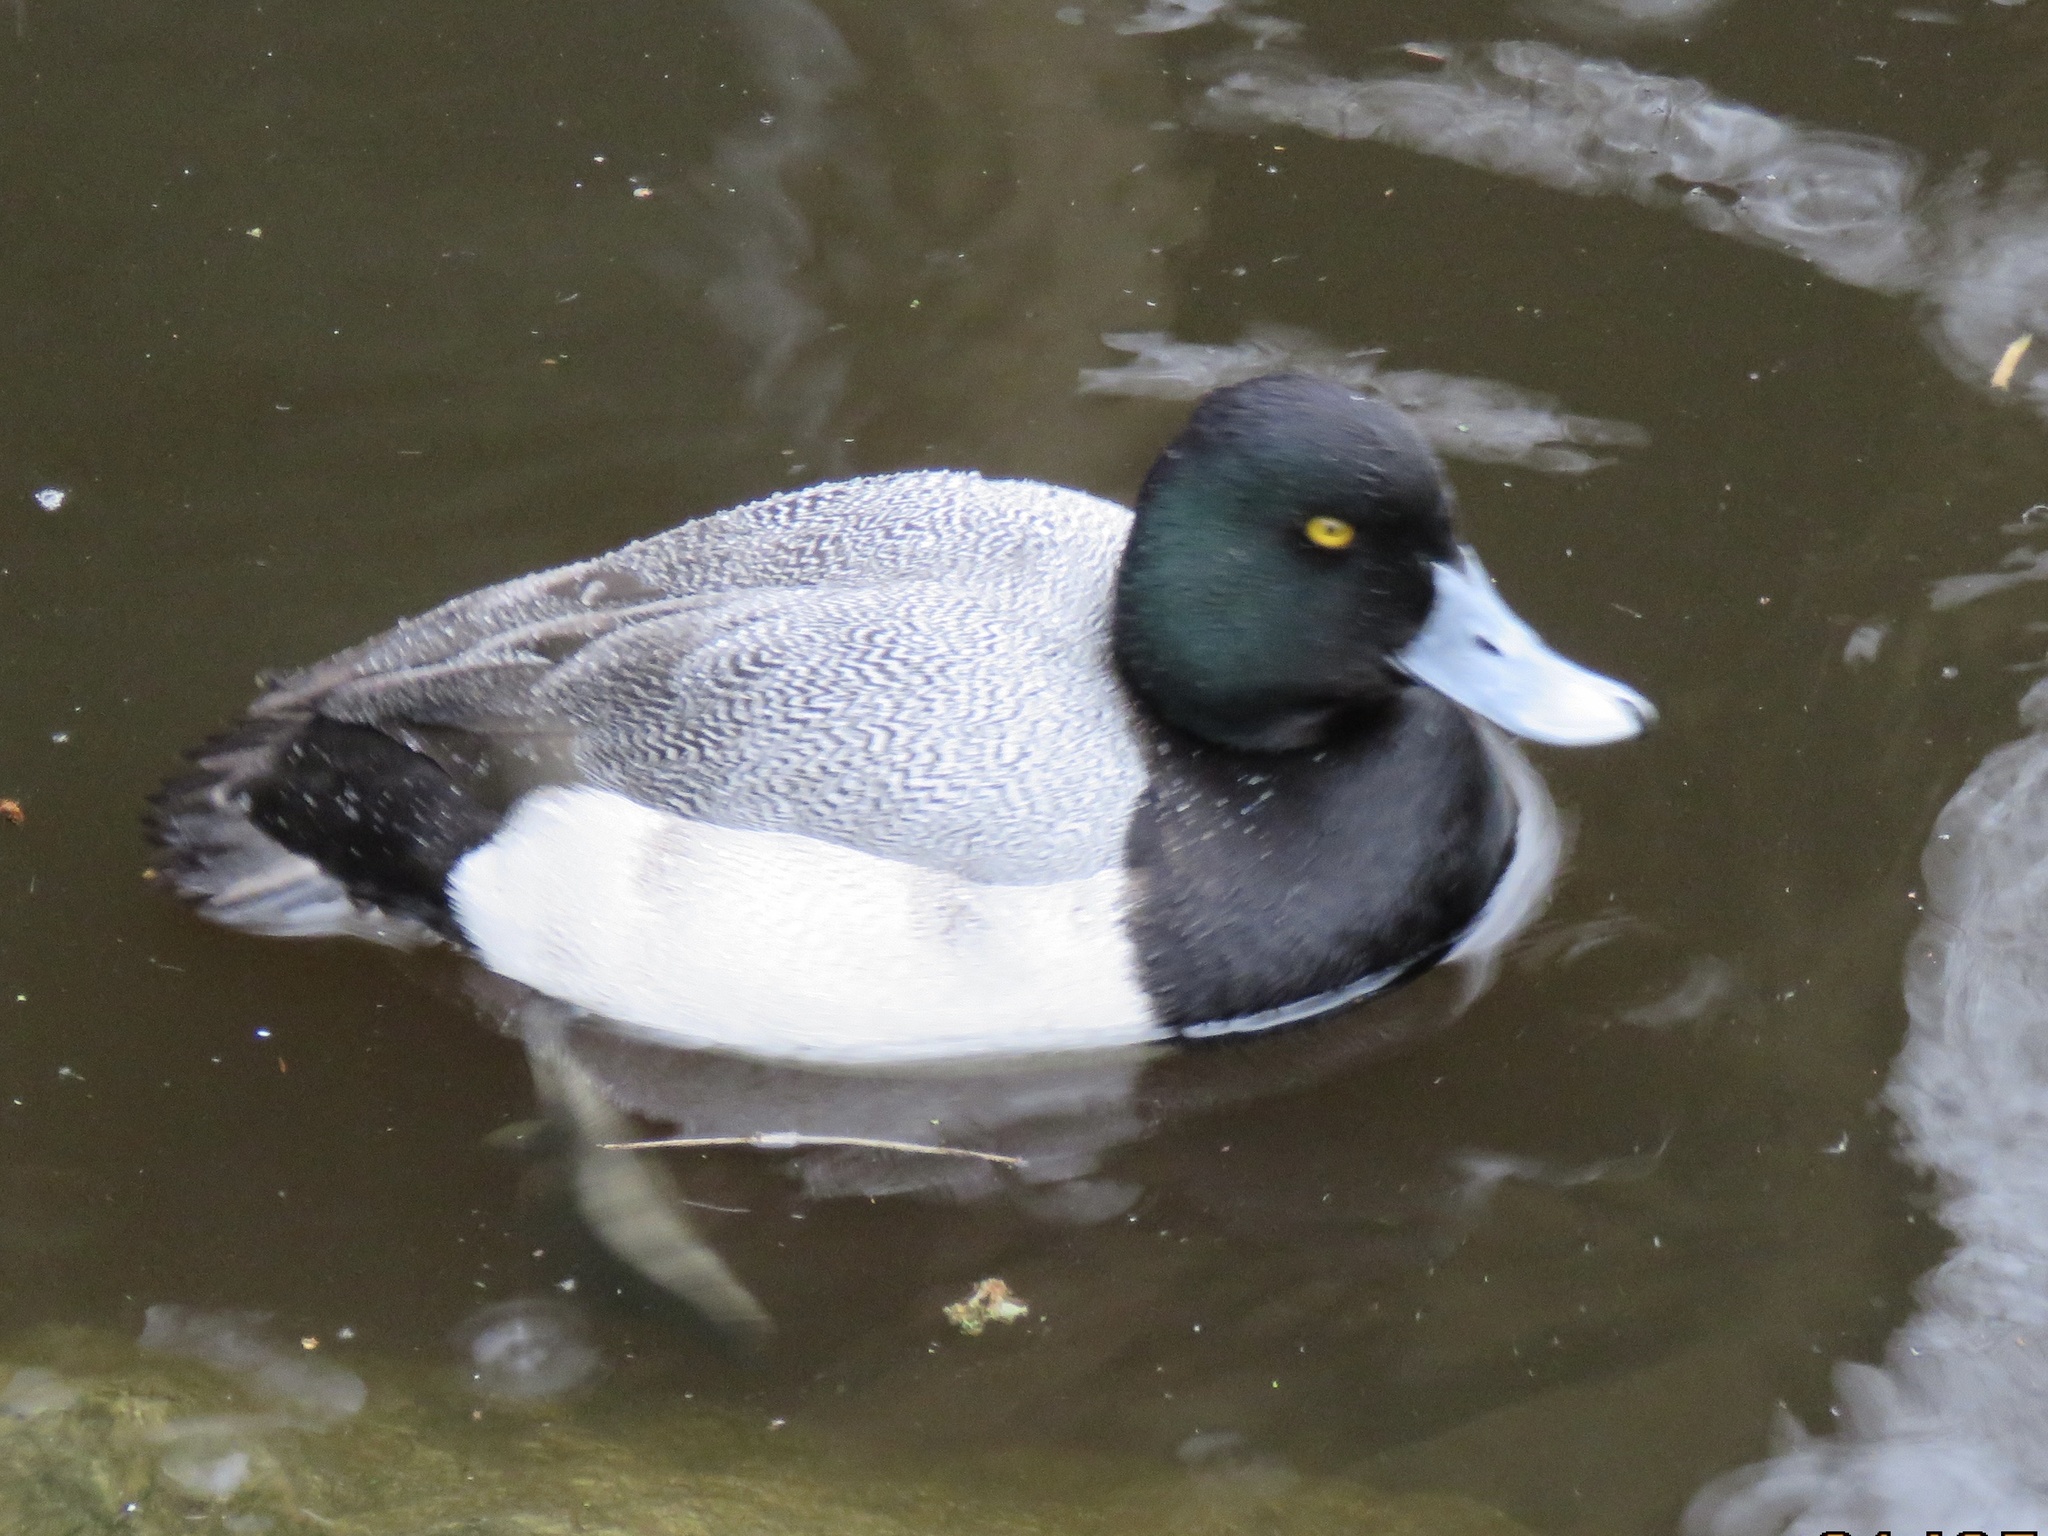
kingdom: Animalia
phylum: Chordata
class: Aves
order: Anseriformes
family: Anatidae
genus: Aythya
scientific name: Aythya marila
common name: Greater scaup
